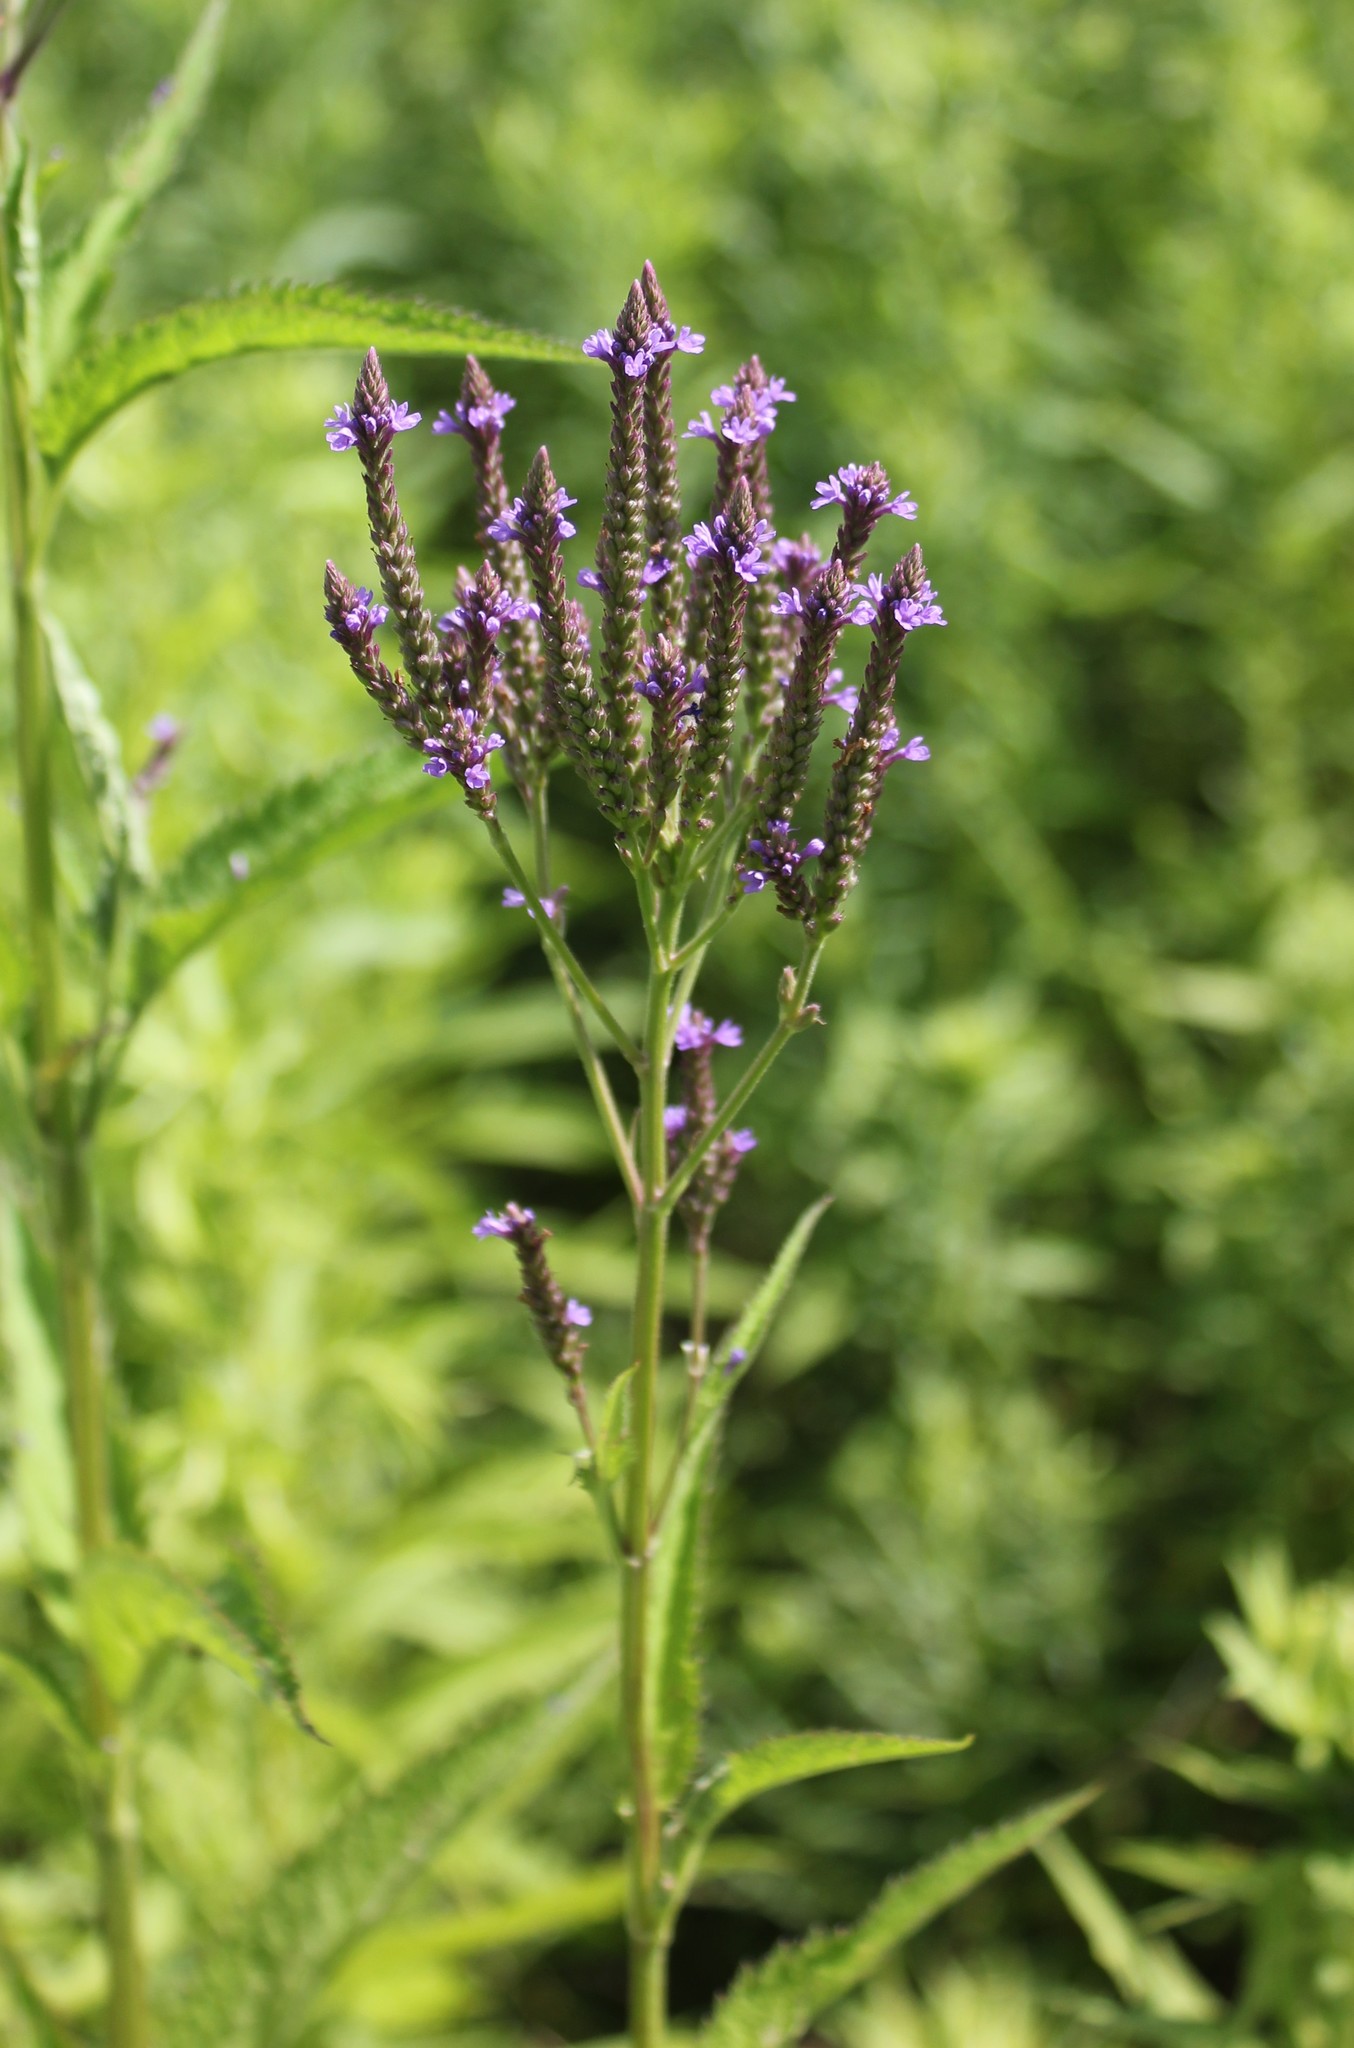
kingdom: Plantae
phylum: Tracheophyta
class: Magnoliopsida
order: Lamiales
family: Verbenaceae
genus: Verbena
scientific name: Verbena hastata
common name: American blue vervain
